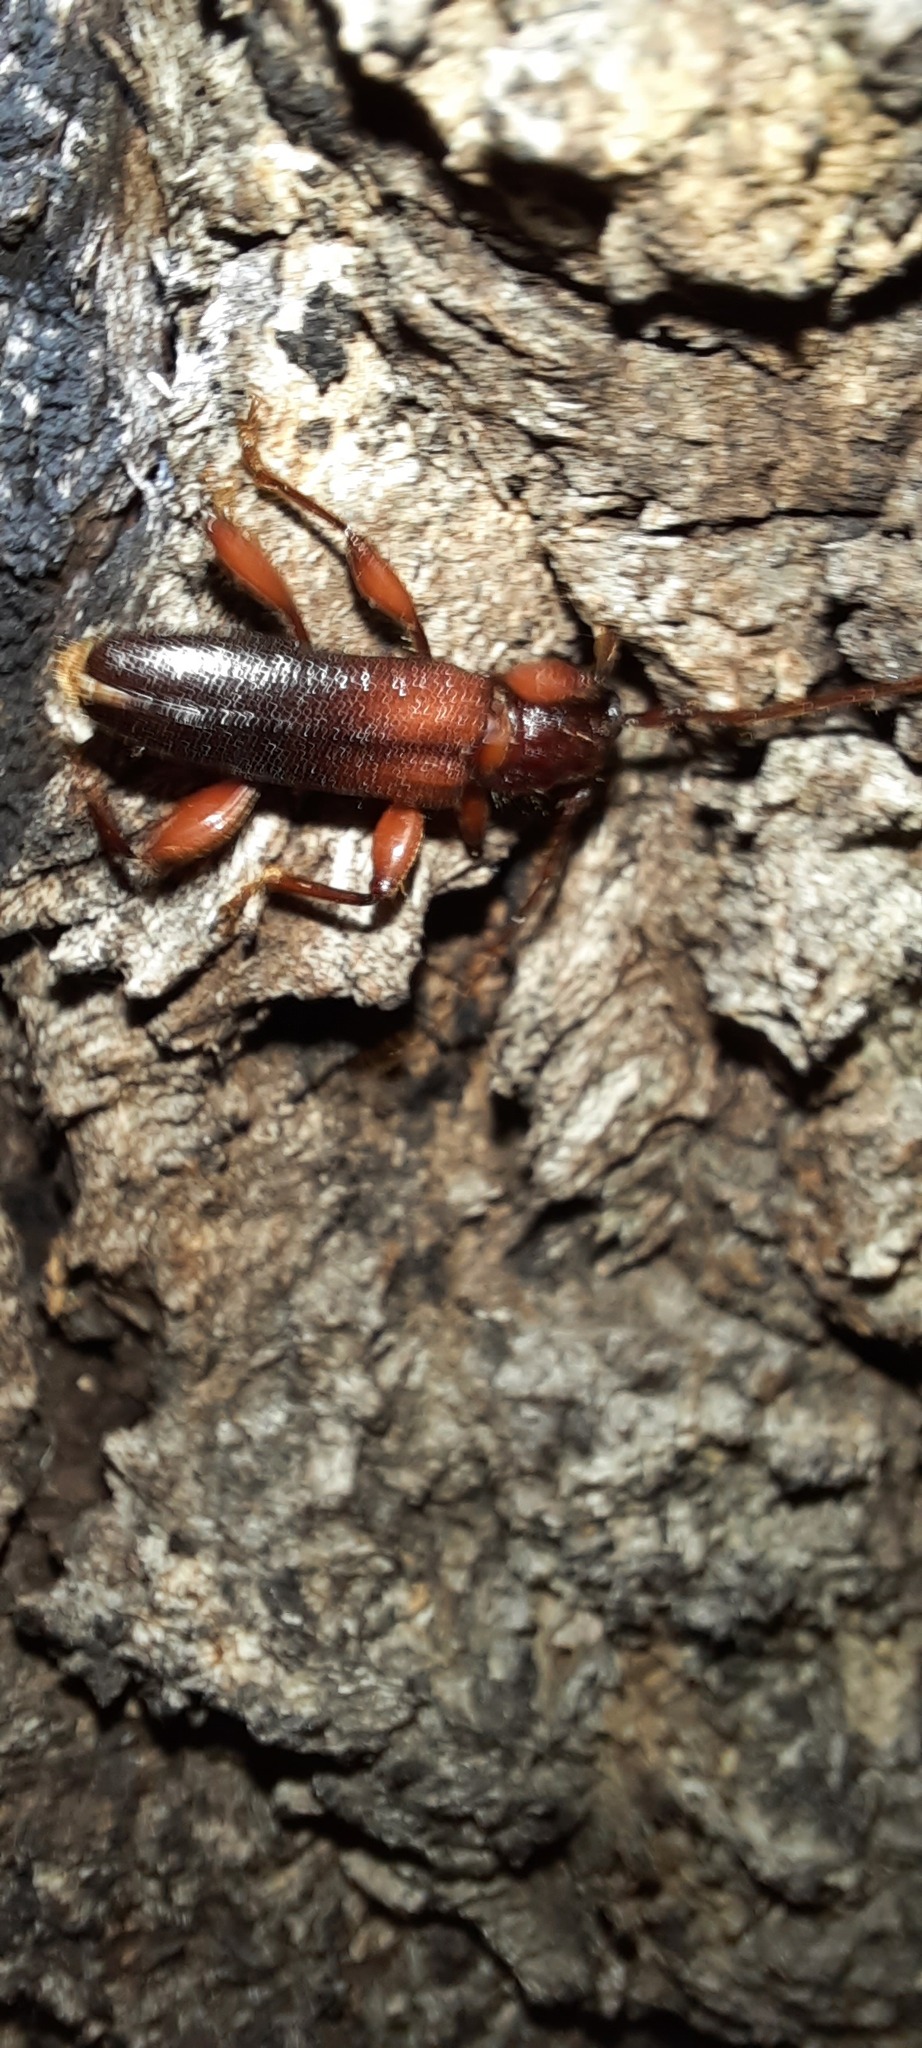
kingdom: Animalia
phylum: Arthropoda
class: Insecta
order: Coleoptera
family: Cerambycidae
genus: Callidiopis
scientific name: Callidiopis praecox
